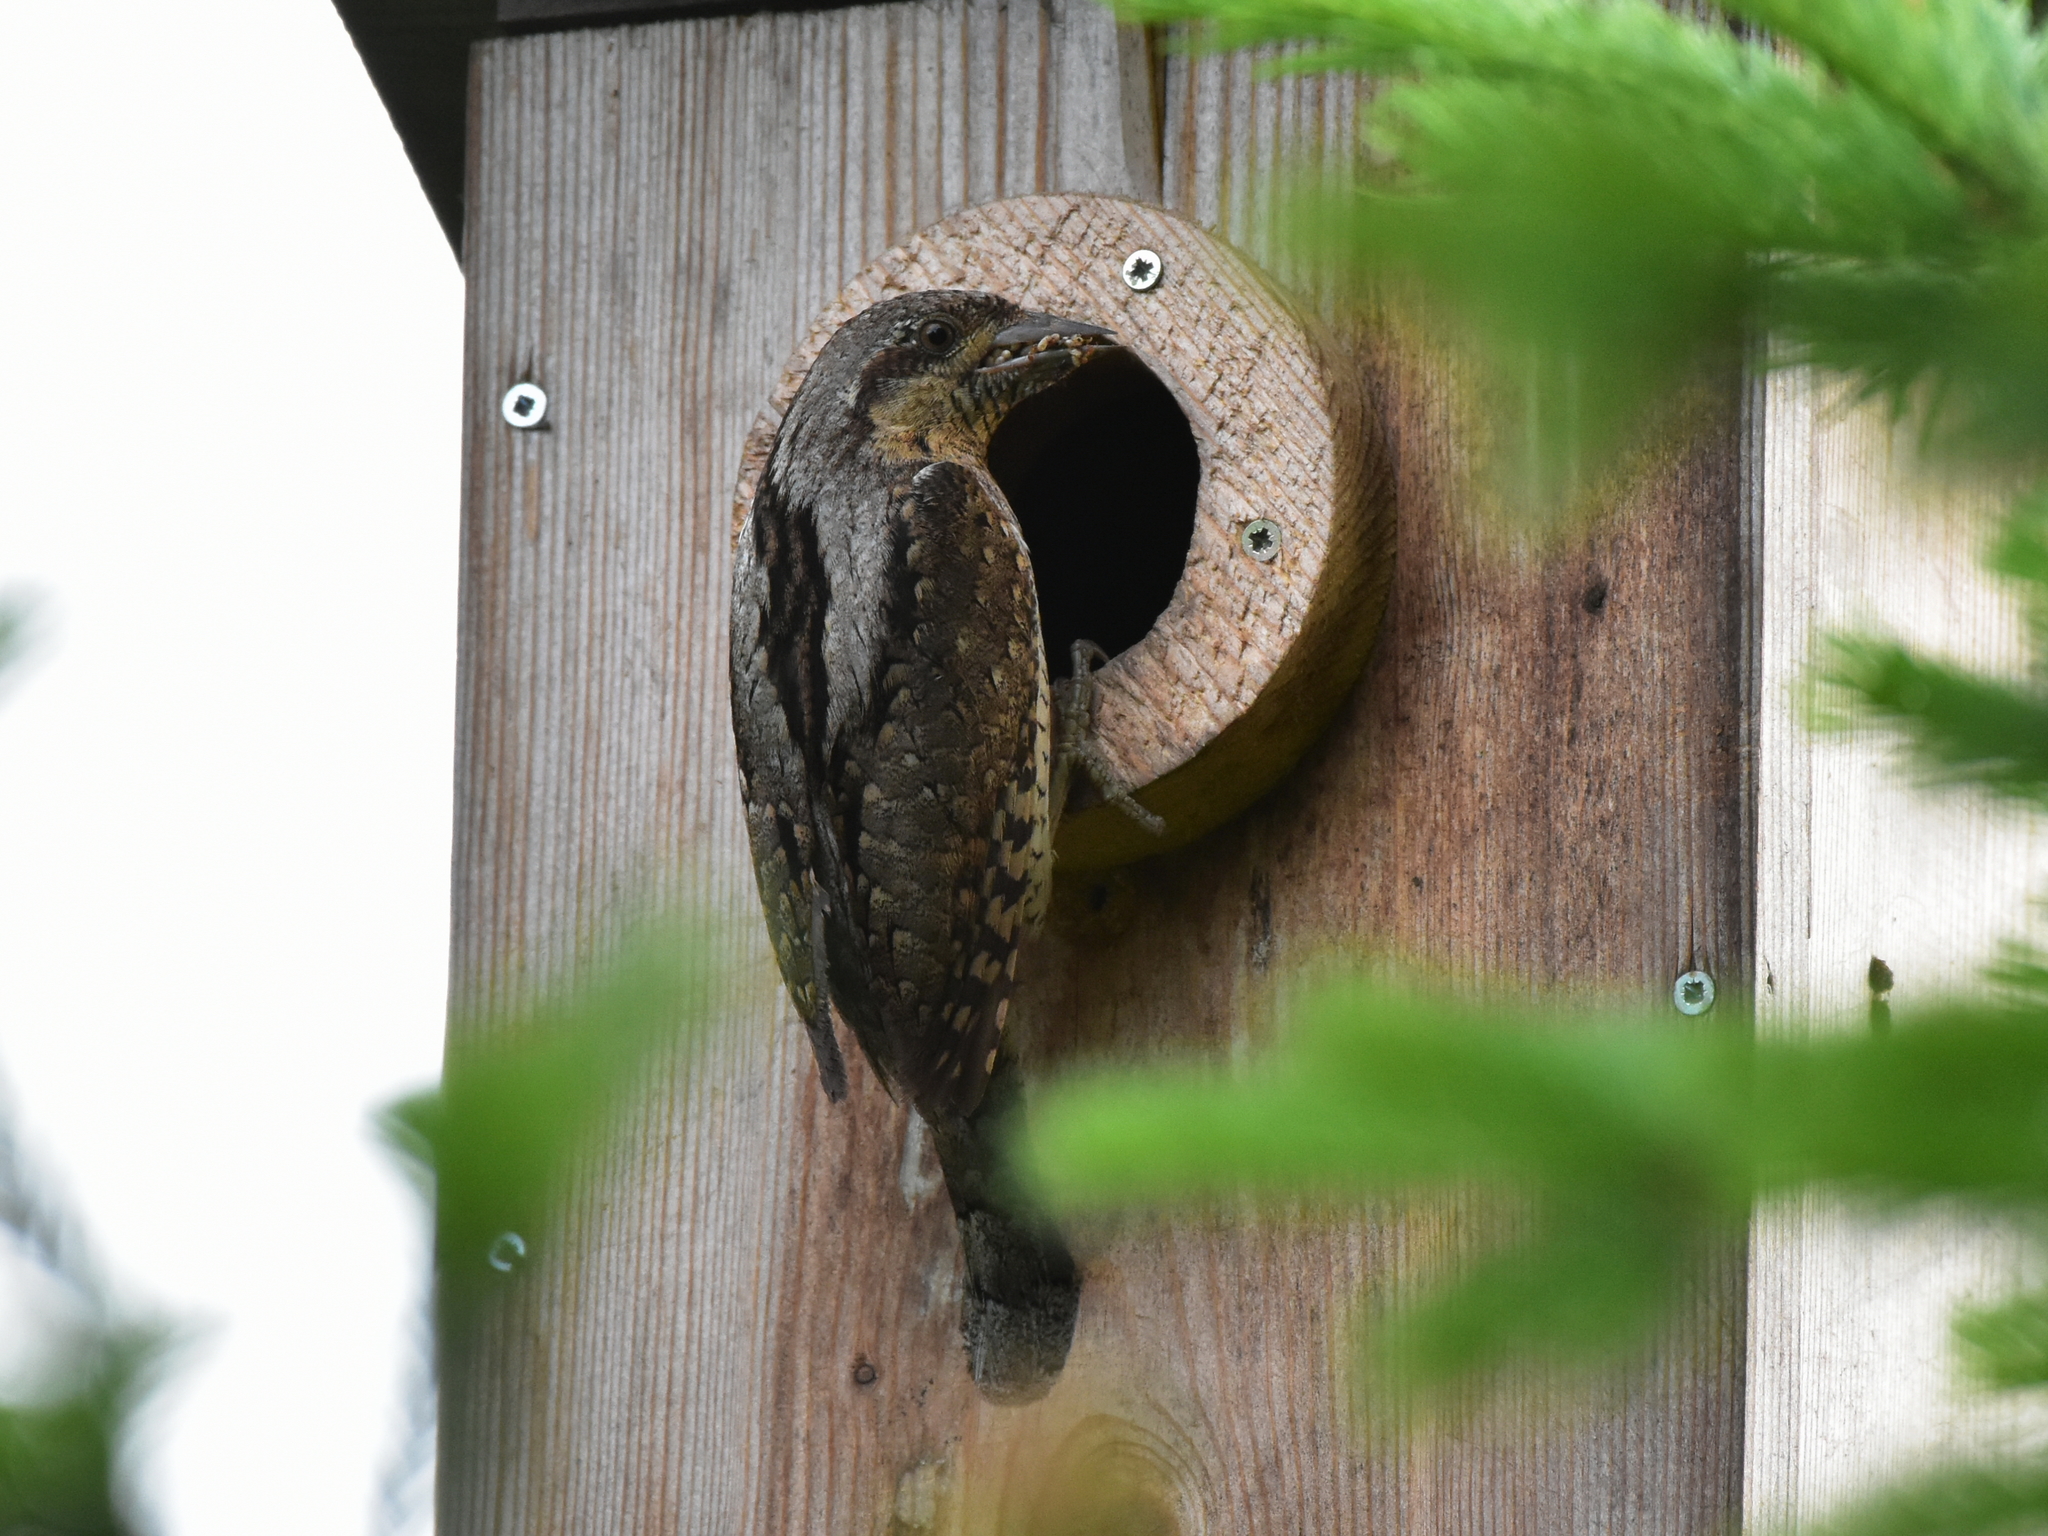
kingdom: Animalia
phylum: Chordata
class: Aves
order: Piciformes
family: Picidae
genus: Jynx
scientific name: Jynx torquilla
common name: Eurasian wryneck
